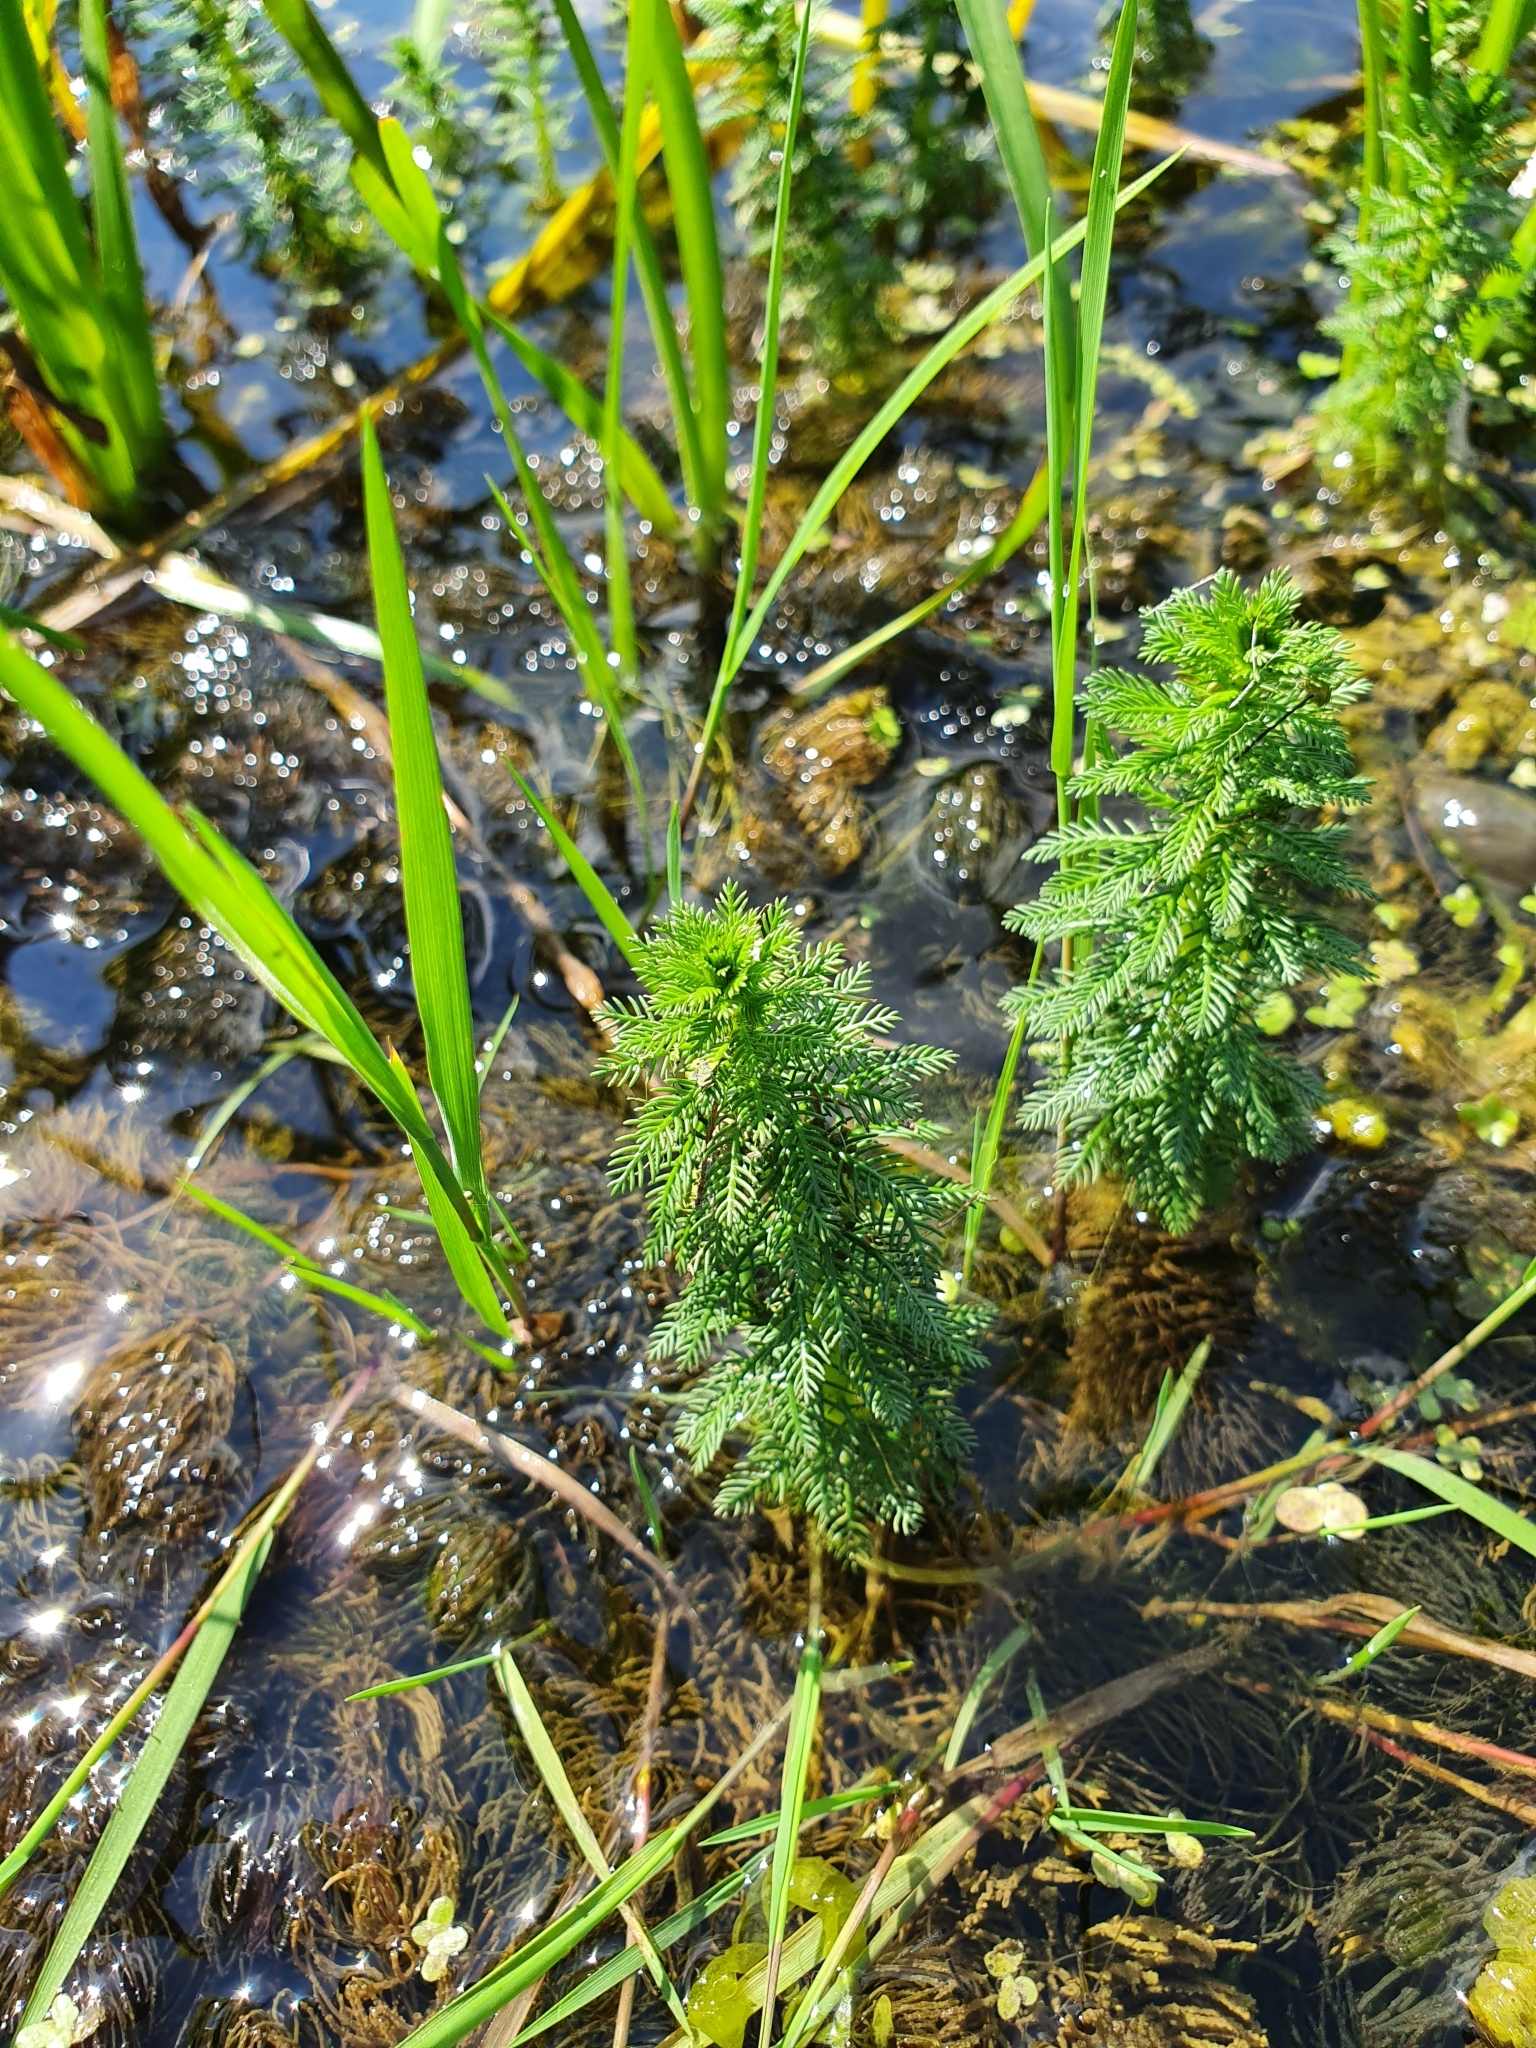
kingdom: Plantae
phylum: Tracheophyta
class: Magnoliopsida
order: Saxifragales
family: Haloragaceae
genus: Myriophyllum
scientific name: Myriophyllum verticillatum
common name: Whorled water-milfoil
